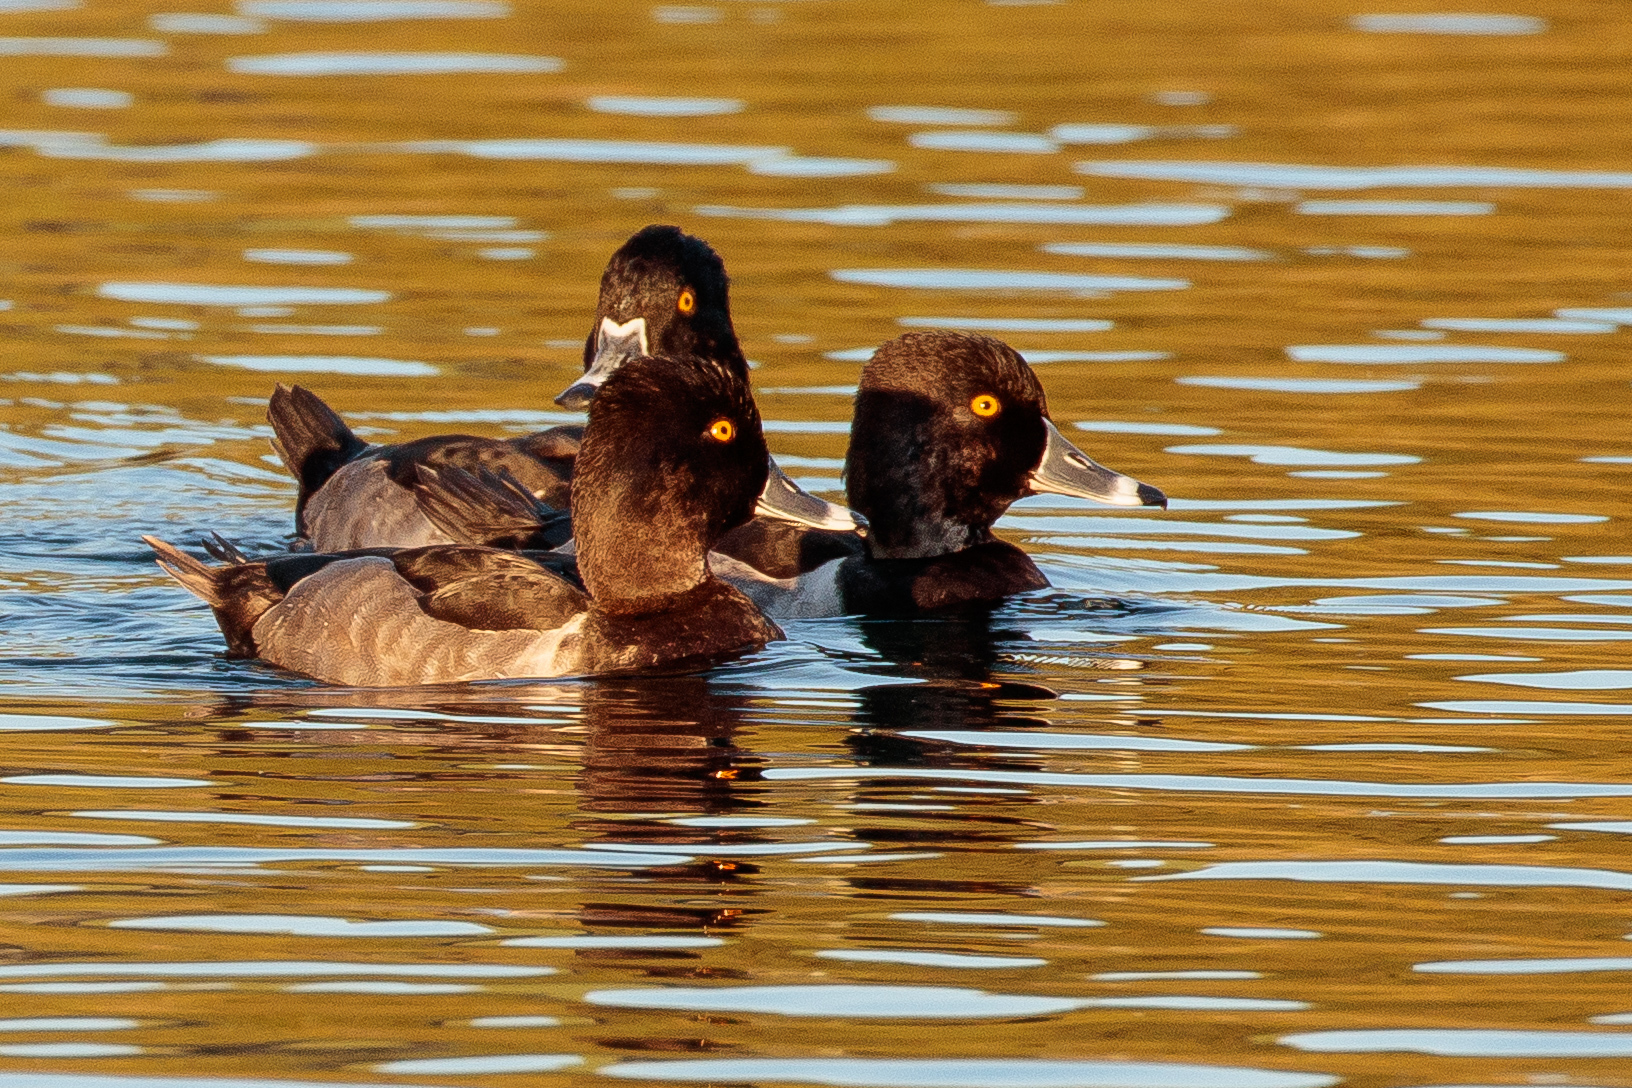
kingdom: Animalia
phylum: Chordata
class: Aves
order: Anseriformes
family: Anatidae
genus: Aythya
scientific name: Aythya collaris
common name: Ring-necked duck
